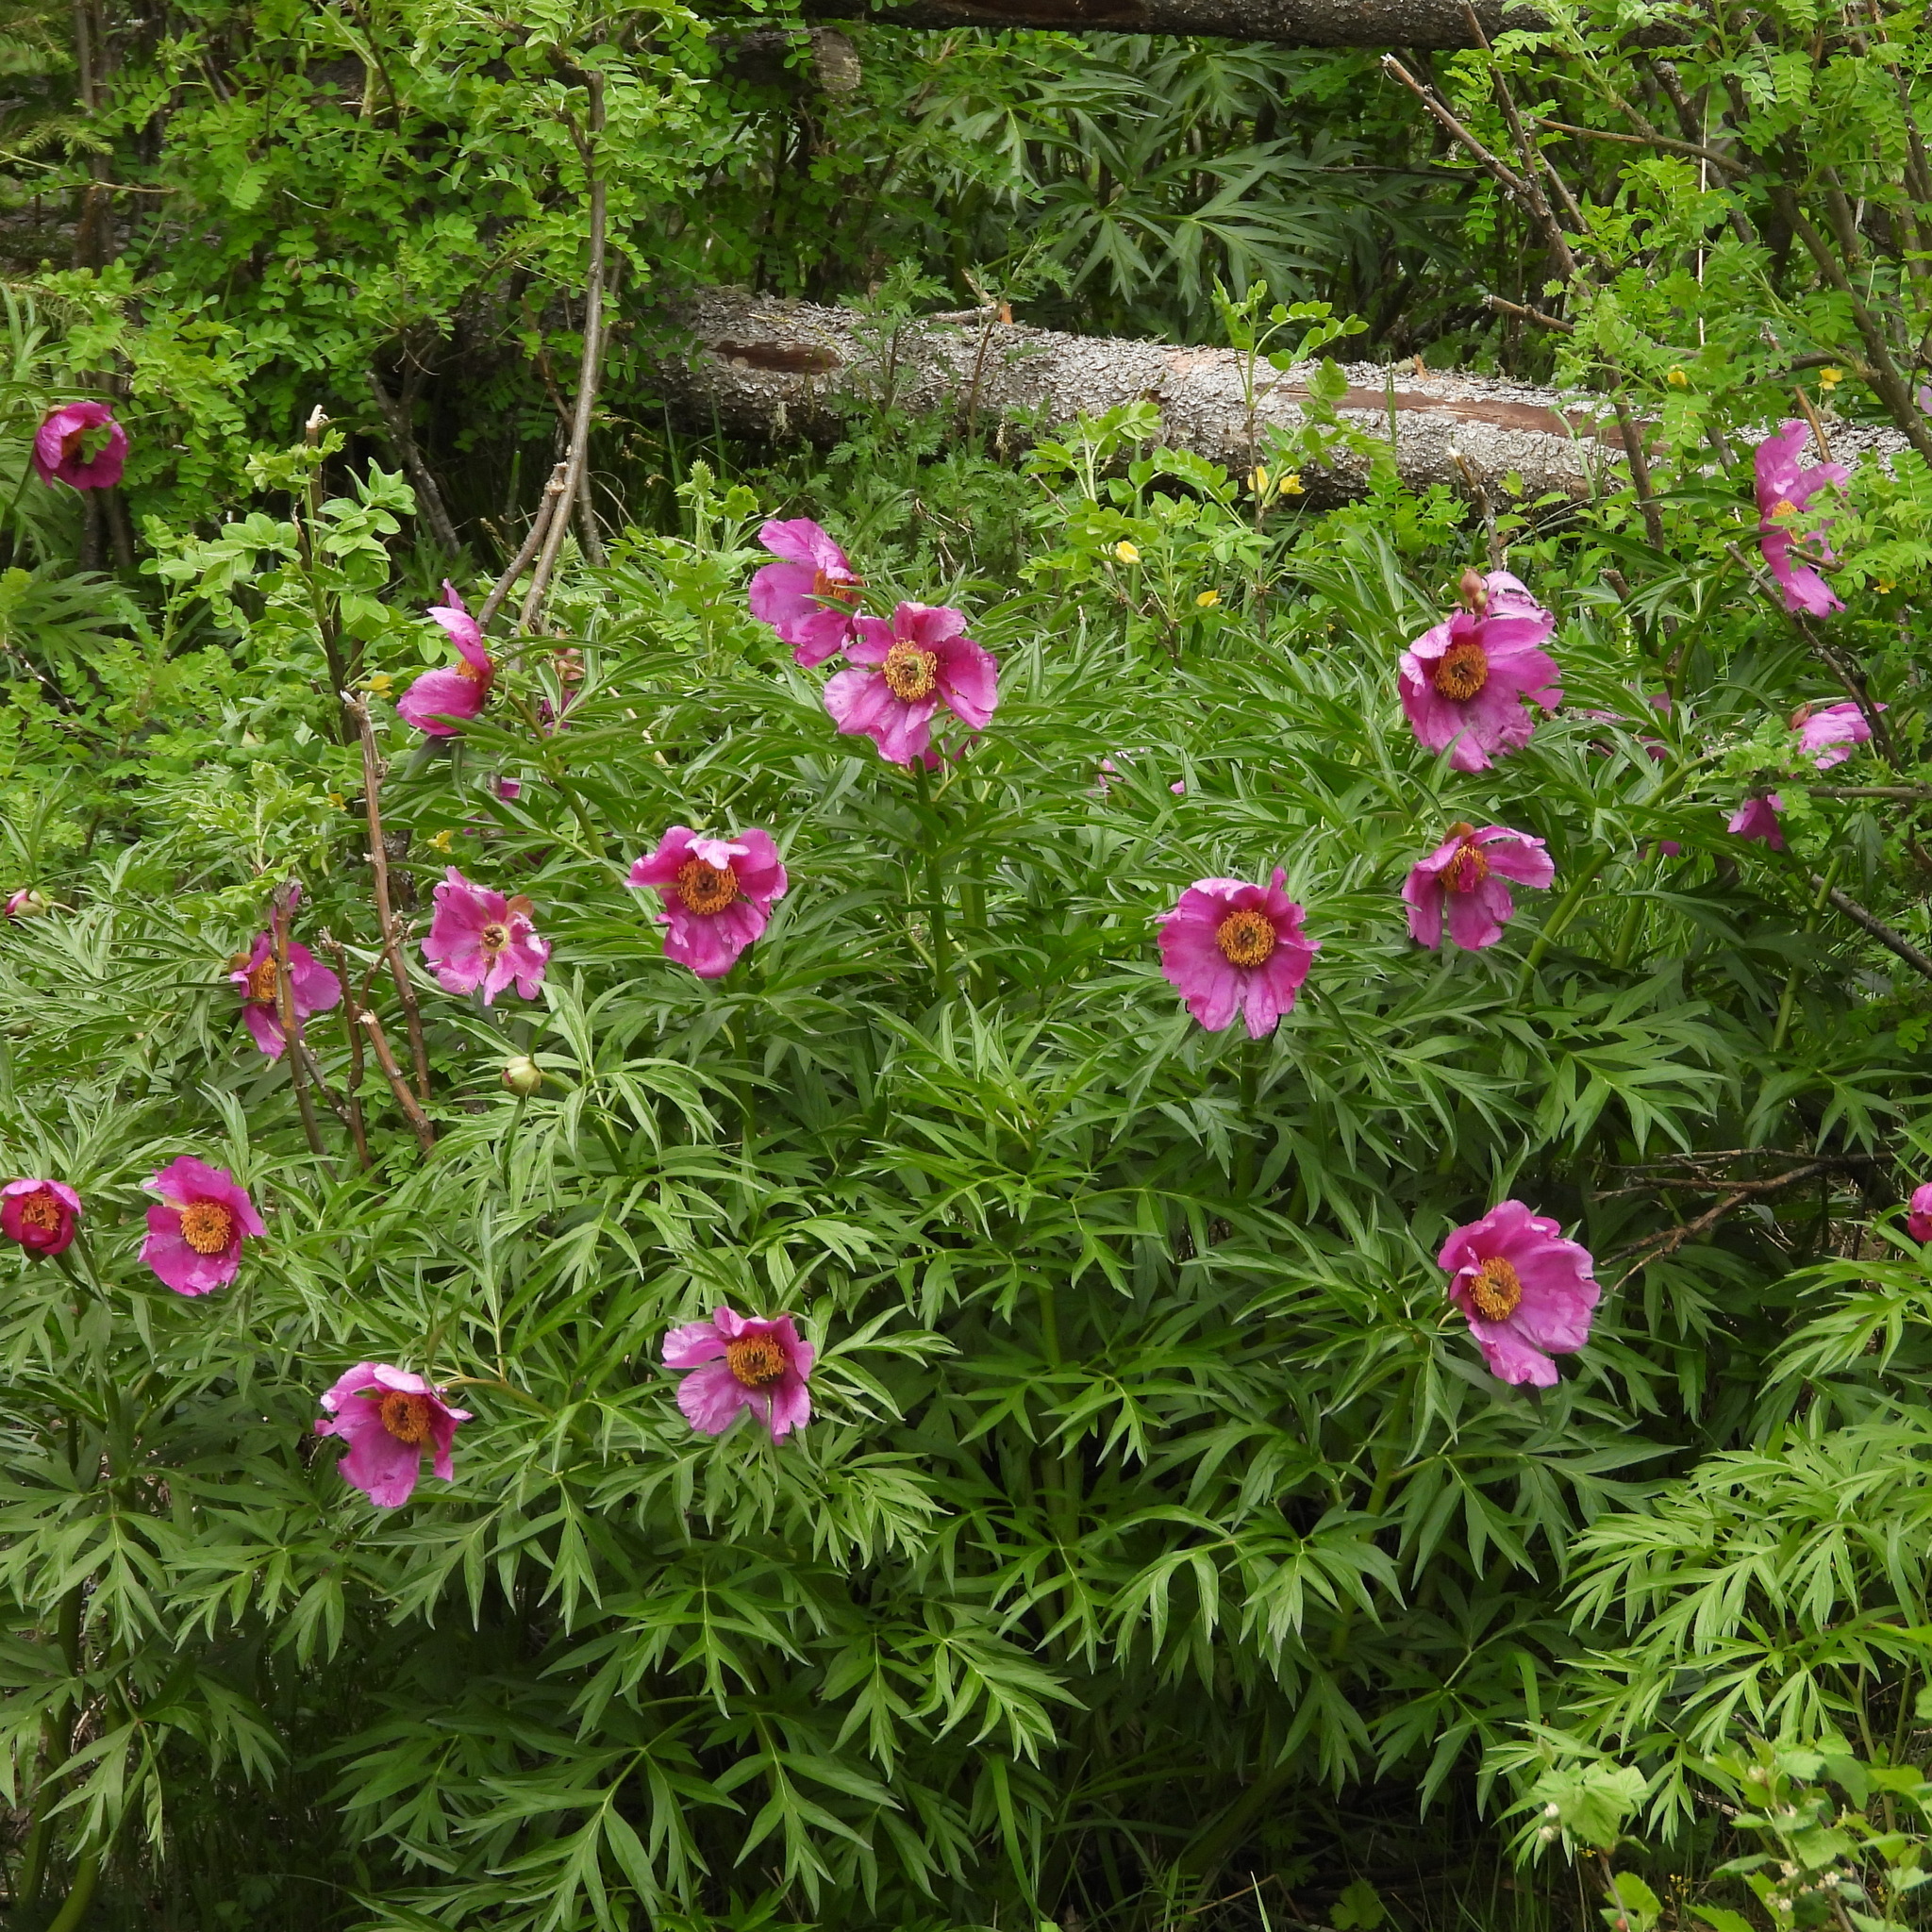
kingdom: Plantae
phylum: Tracheophyta
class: Magnoliopsida
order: Saxifragales
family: Paeoniaceae
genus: Paeonia
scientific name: Paeonia anomala
